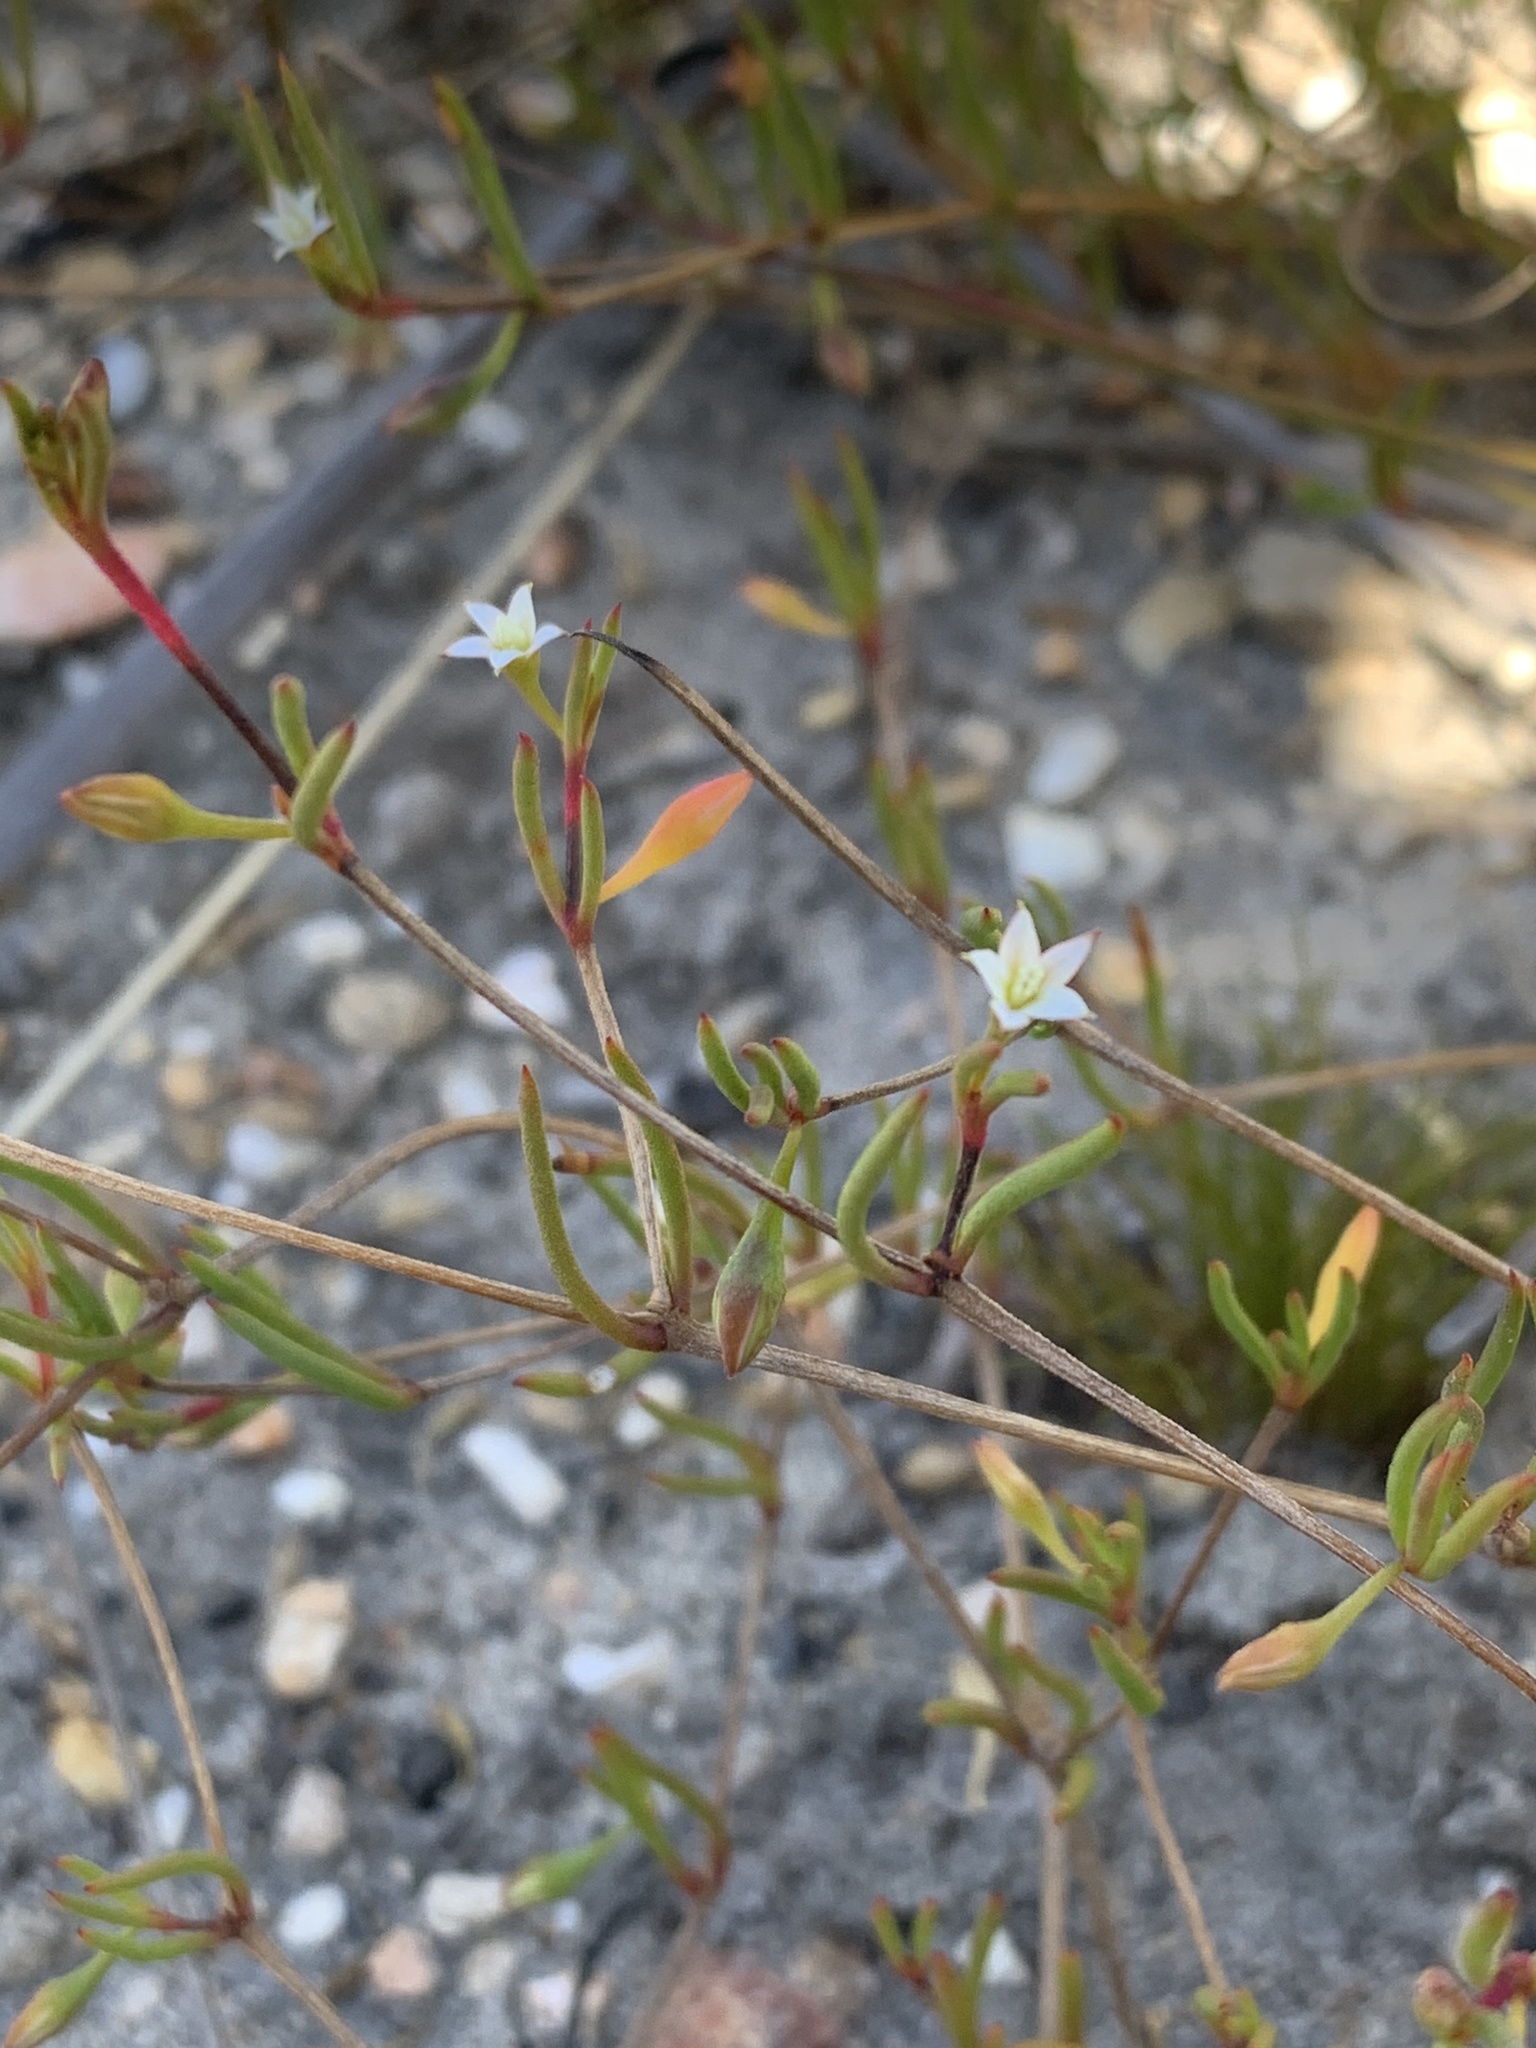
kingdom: Plantae
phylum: Tracheophyta
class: Magnoliopsida
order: Caryophyllales
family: Aizoaceae
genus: Acrosanthes
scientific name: Acrosanthes teretifolia
